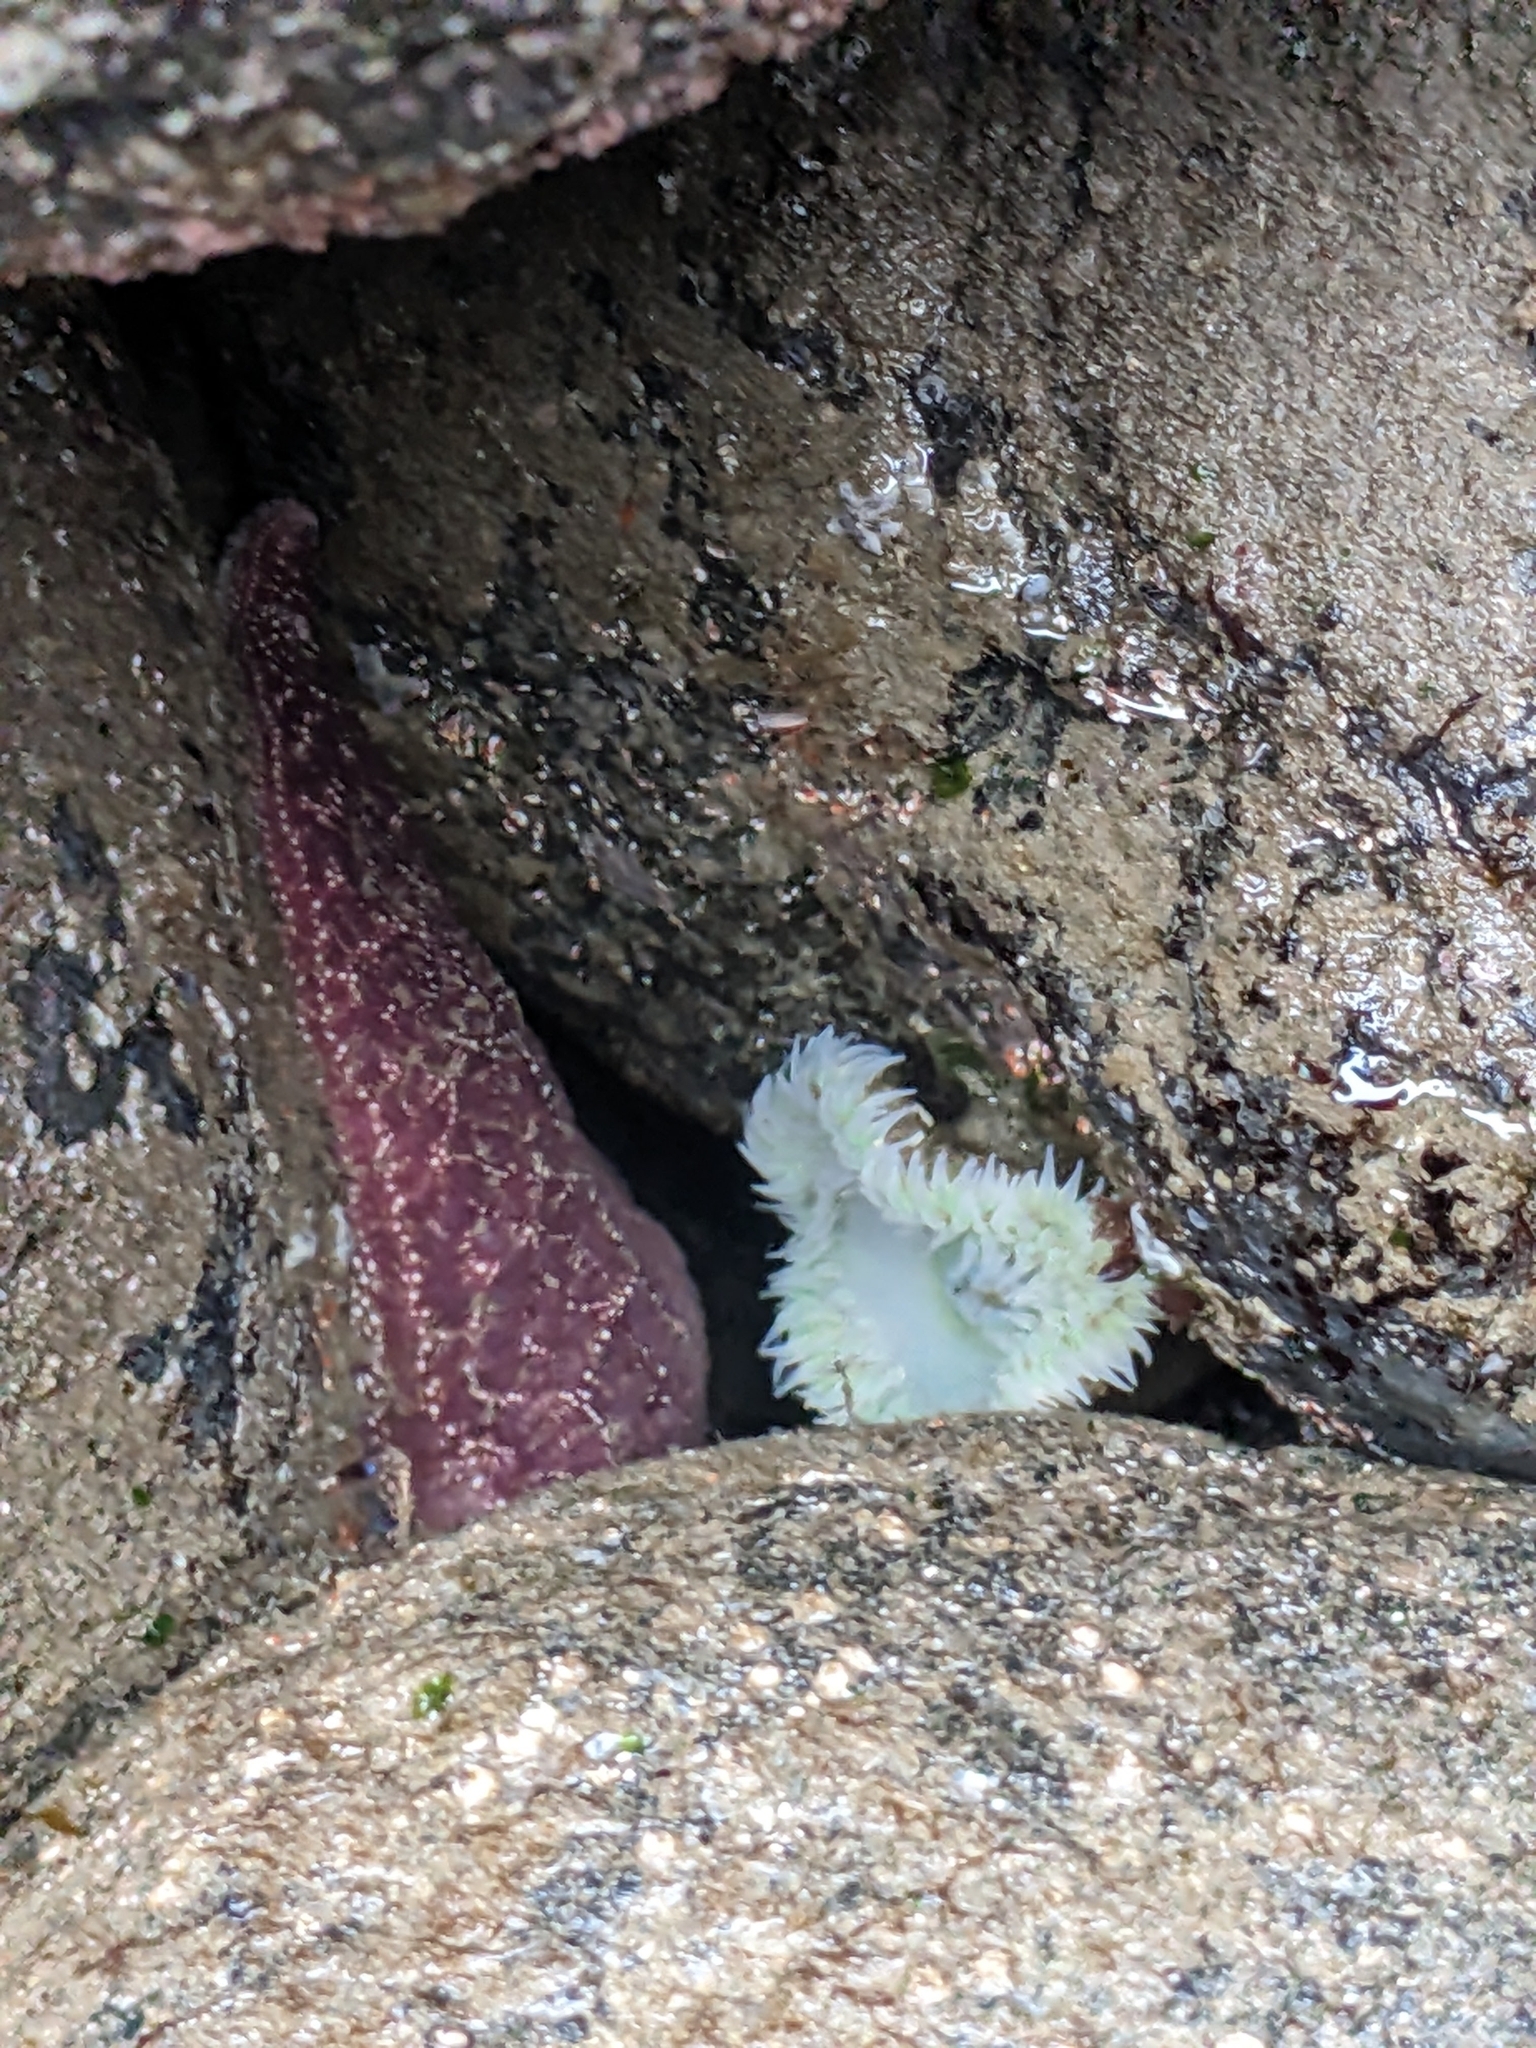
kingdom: Animalia
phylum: Cnidaria
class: Anthozoa
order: Actiniaria
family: Actiniidae
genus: Anthopleura
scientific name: Anthopleura xanthogrammica
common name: Giant green anemone
